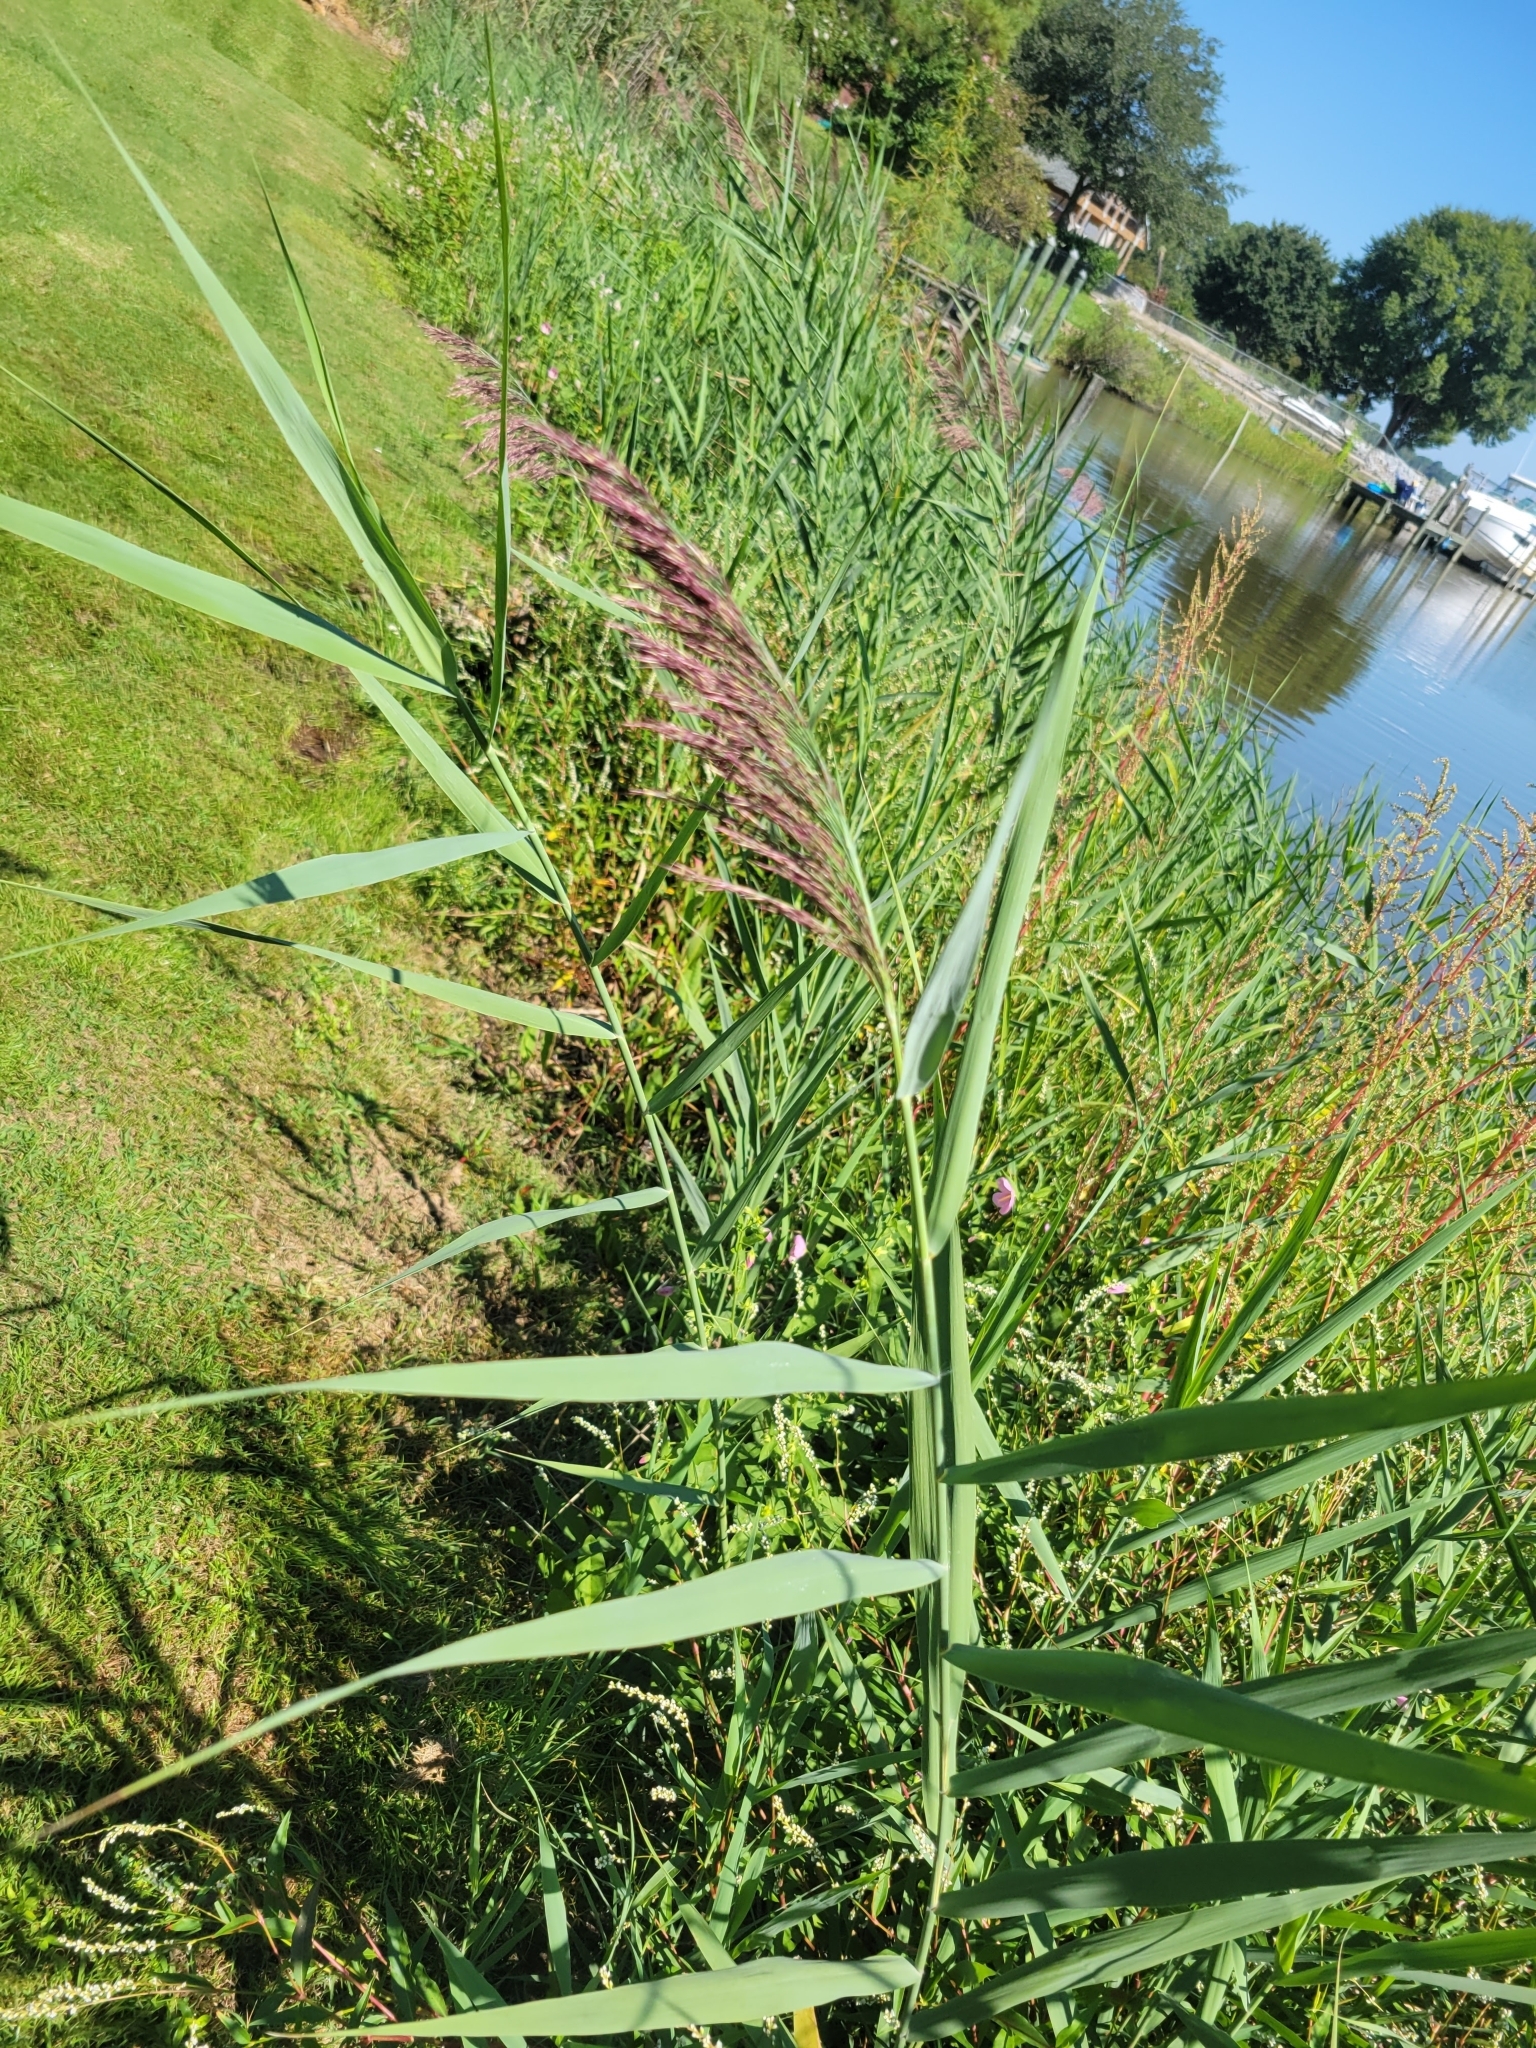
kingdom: Plantae
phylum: Tracheophyta
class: Liliopsida
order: Poales
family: Poaceae
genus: Phragmites
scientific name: Phragmites australis
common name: Common reed
